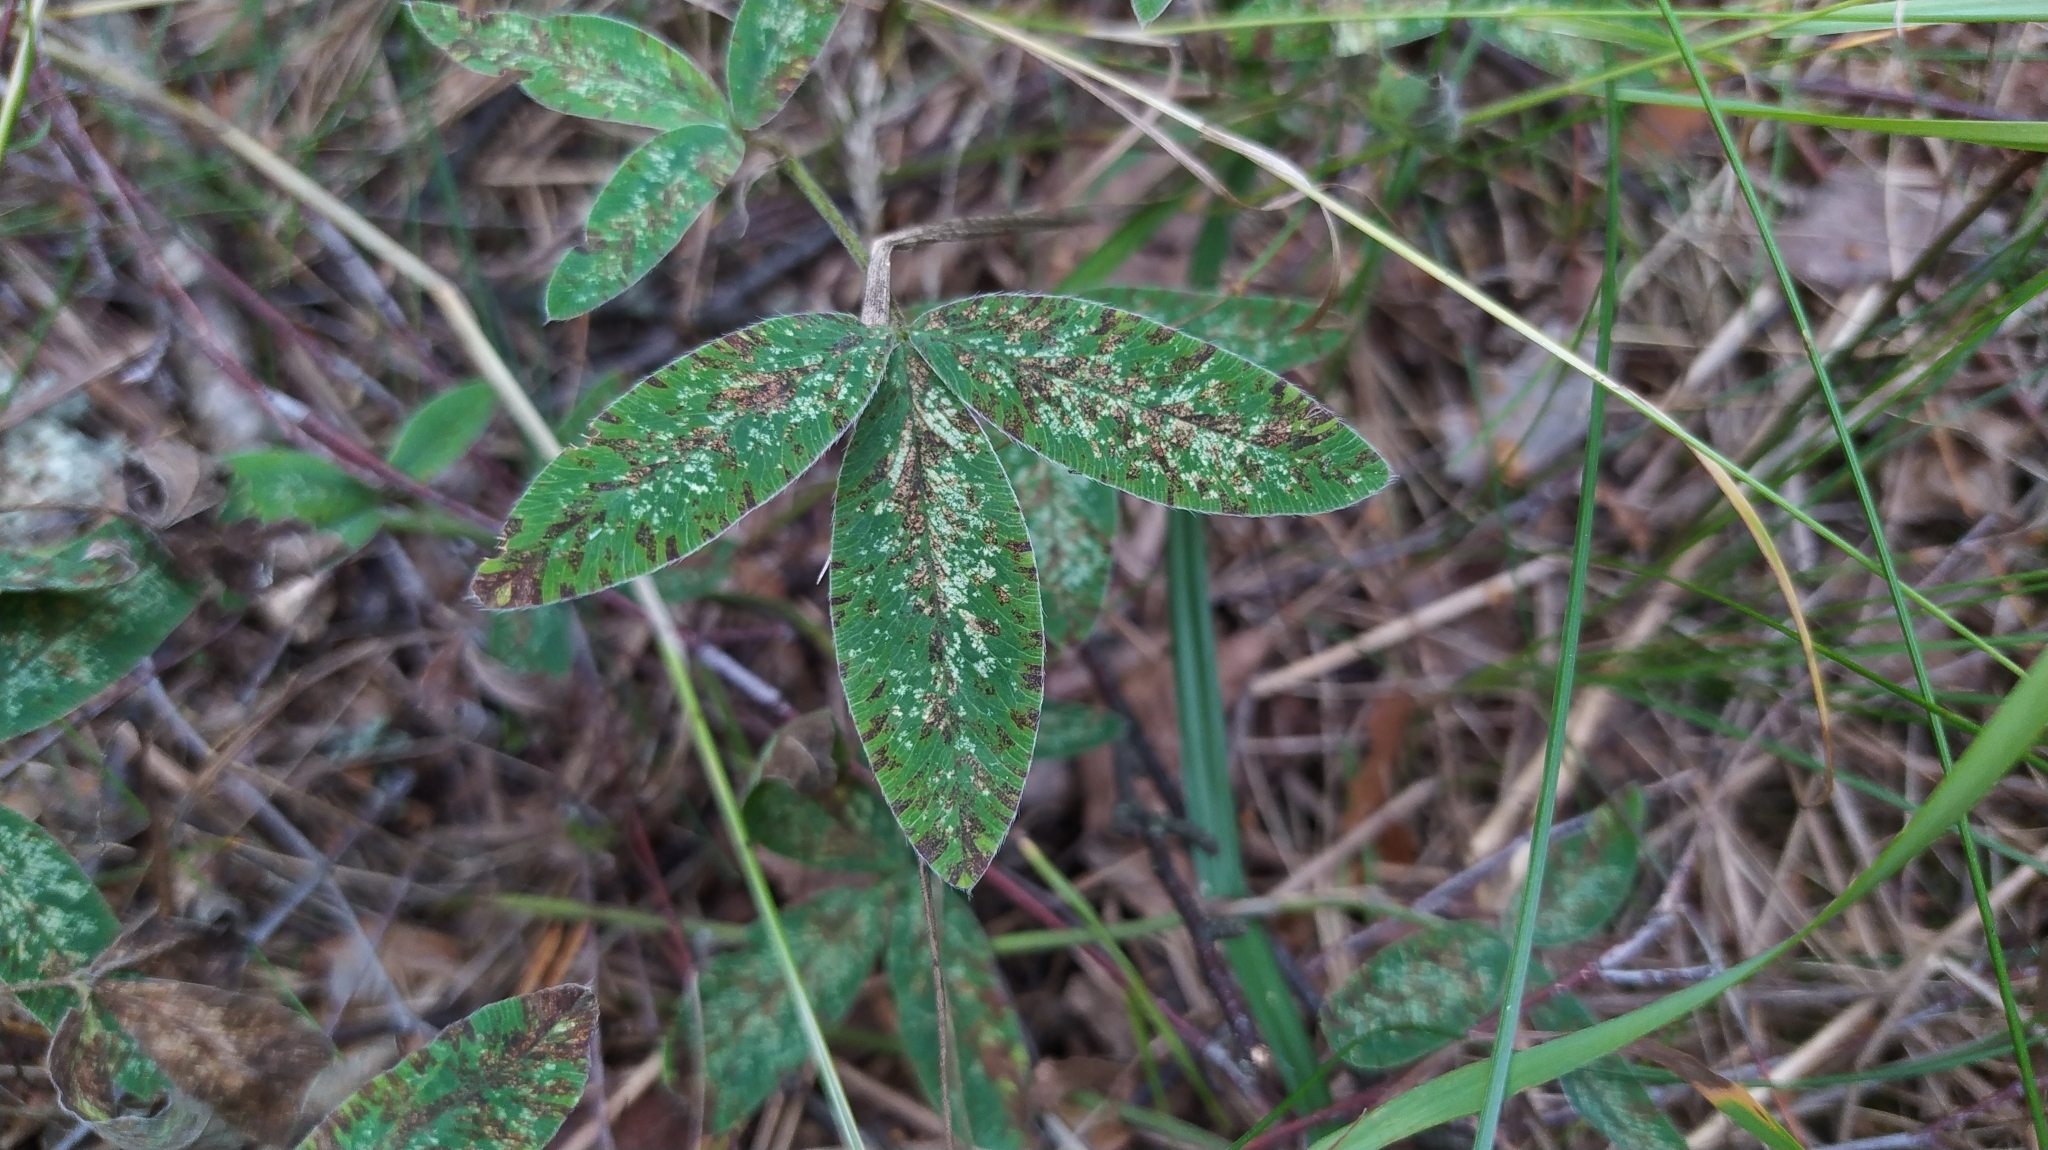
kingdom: Plantae
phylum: Tracheophyta
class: Magnoliopsida
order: Fabales
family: Fabaceae
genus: Trifolium
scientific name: Trifolium medium
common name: Zigzag clover
